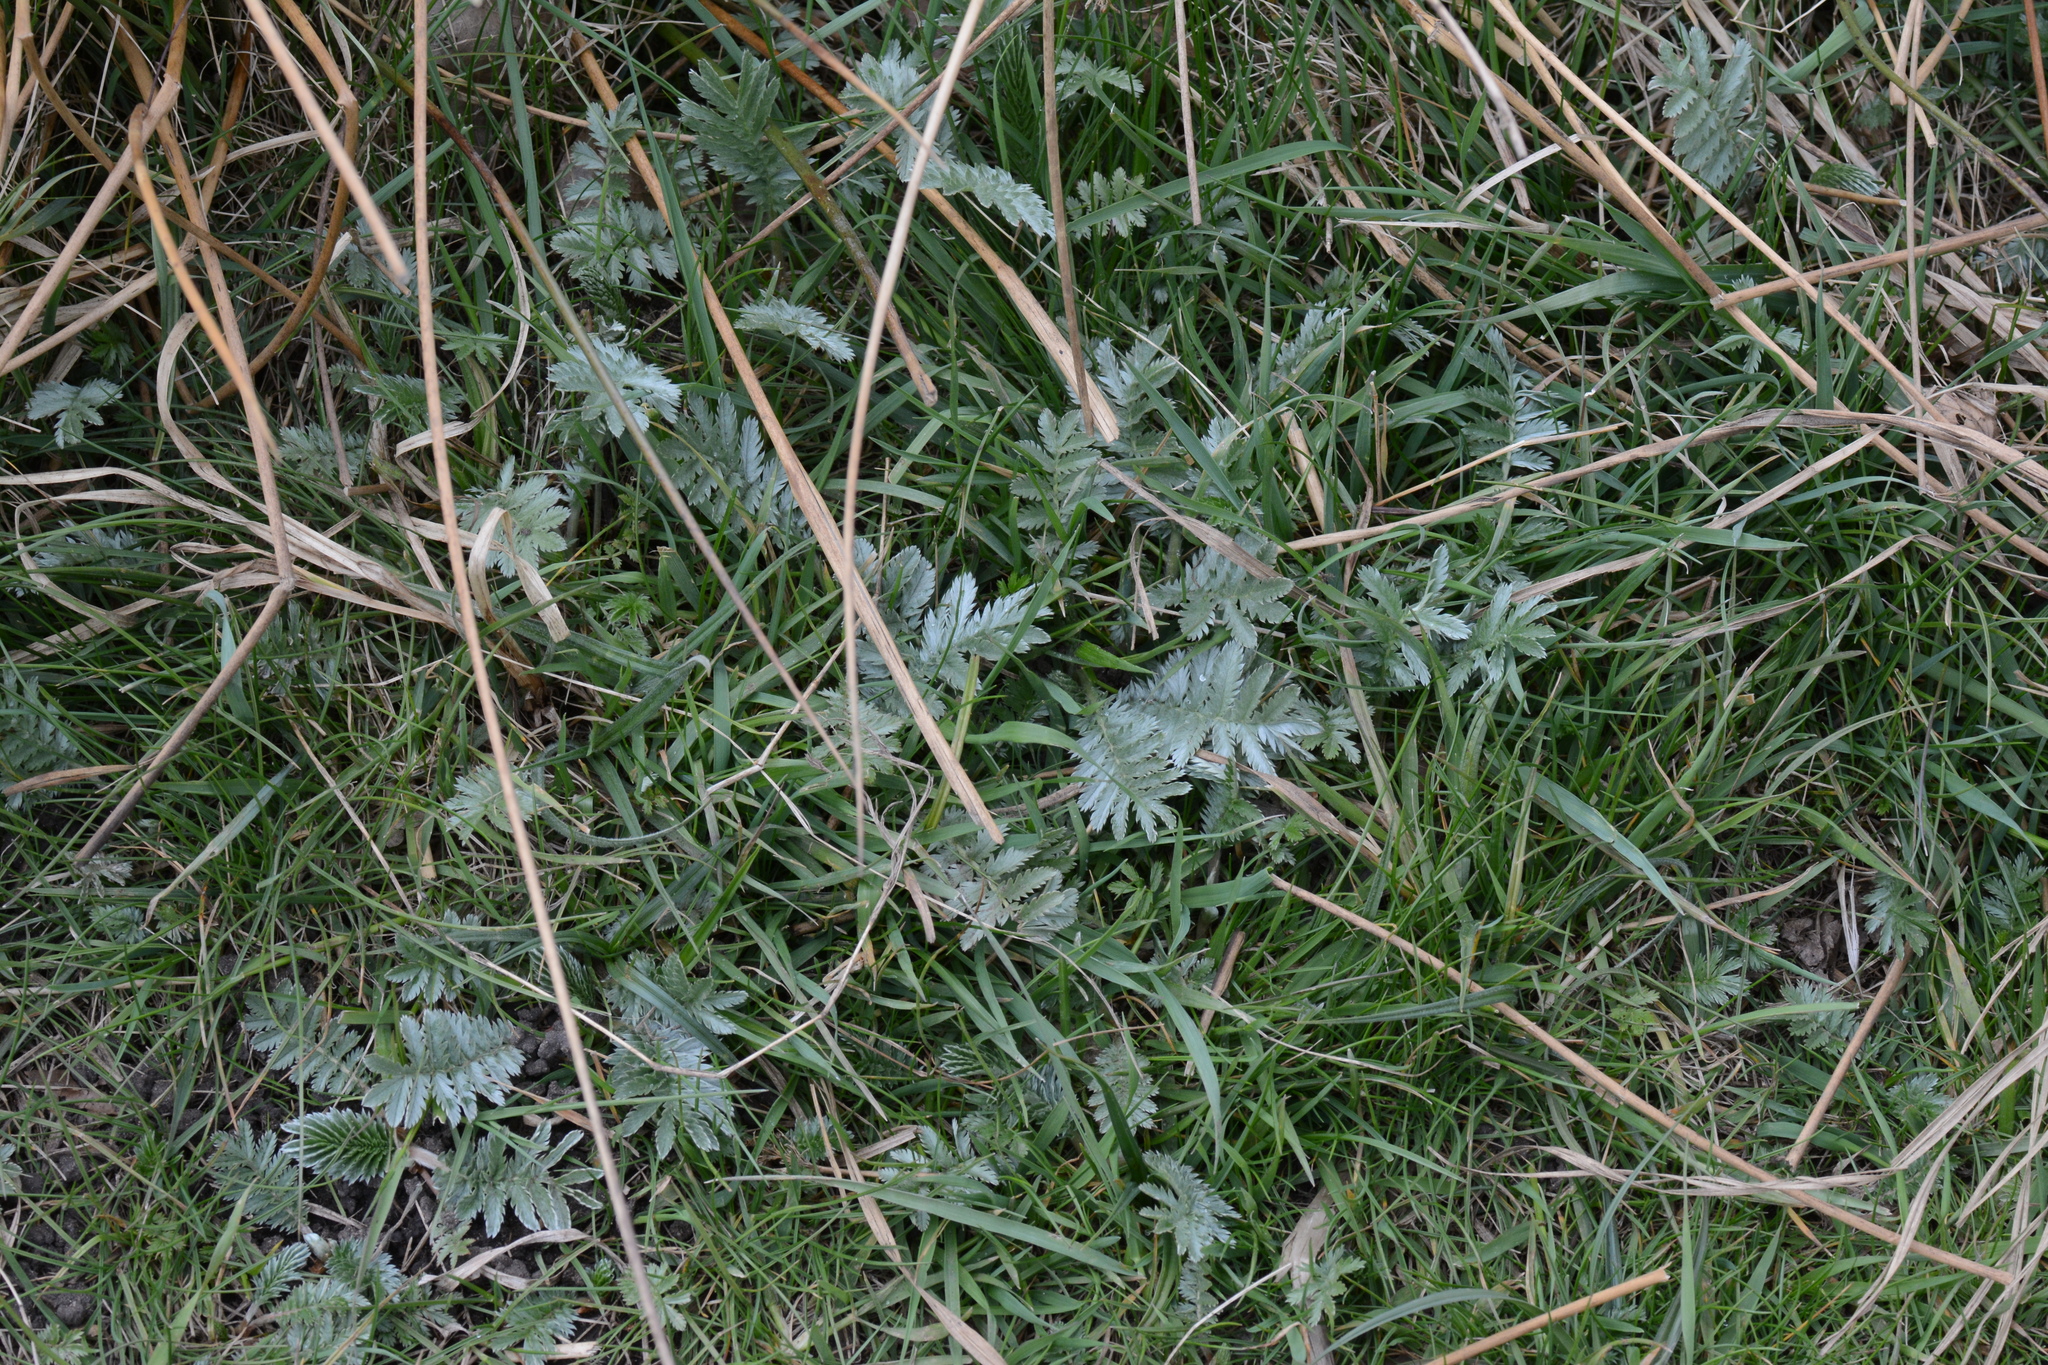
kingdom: Plantae
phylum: Tracheophyta
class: Magnoliopsida
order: Rosales
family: Rosaceae
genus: Argentina
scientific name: Argentina anserina
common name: Common silverweed
